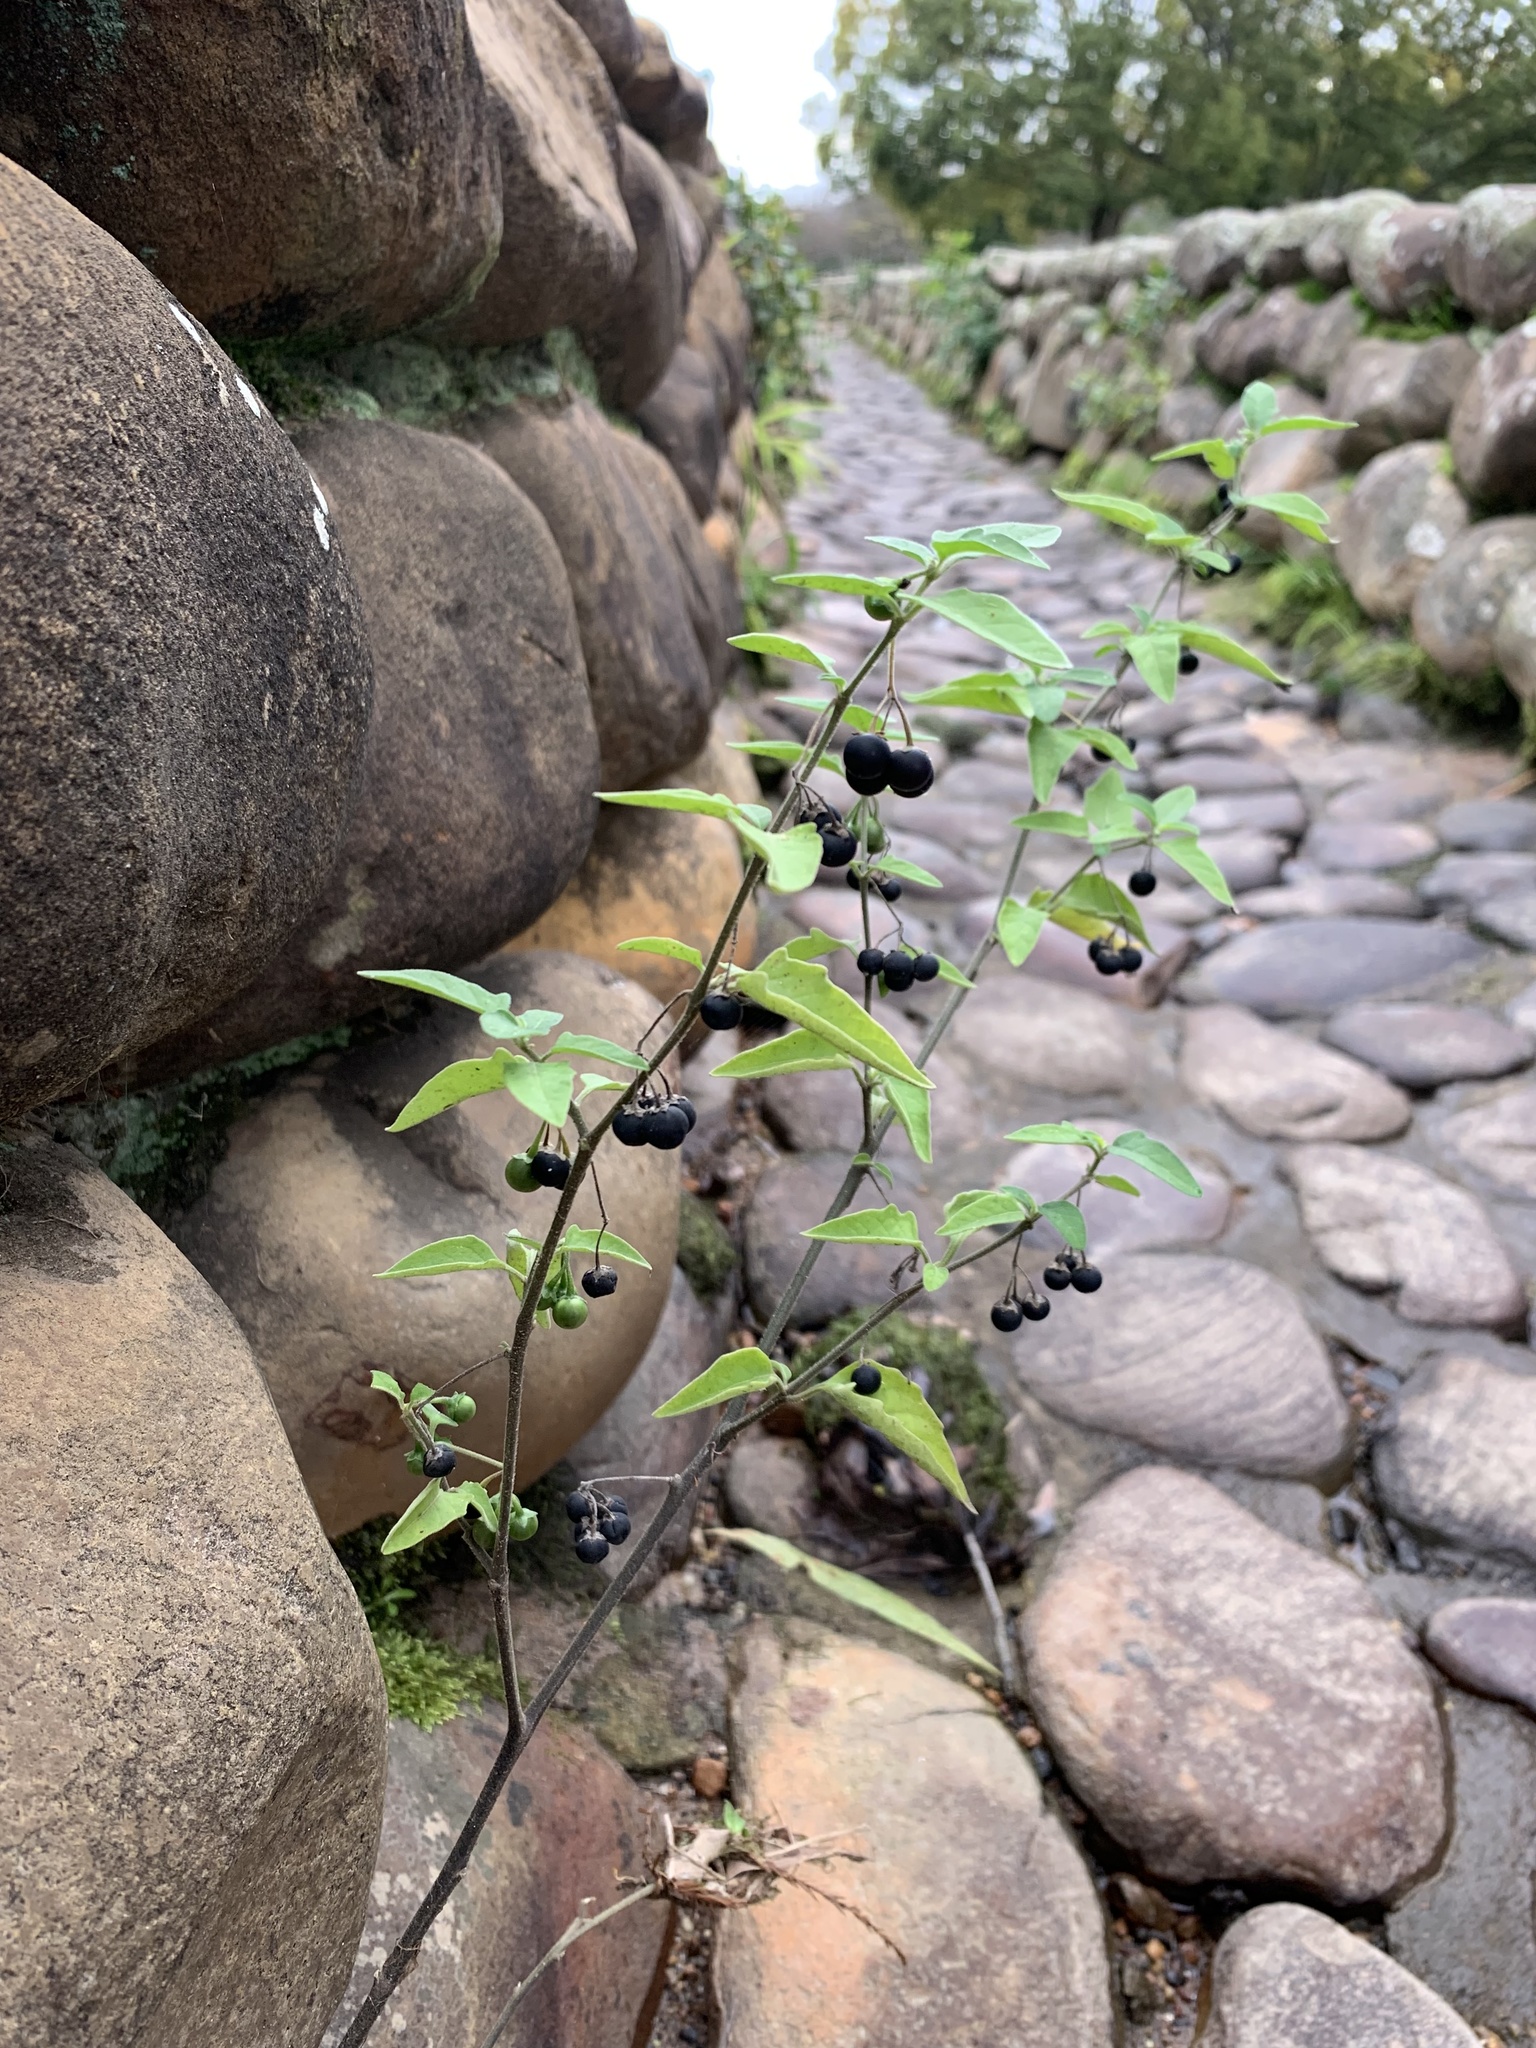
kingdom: Plantae
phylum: Tracheophyta
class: Magnoliopsida
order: Solanales
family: Solanaceae
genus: Solanum
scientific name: Solanum chenopodioides
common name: Tall nightshade
